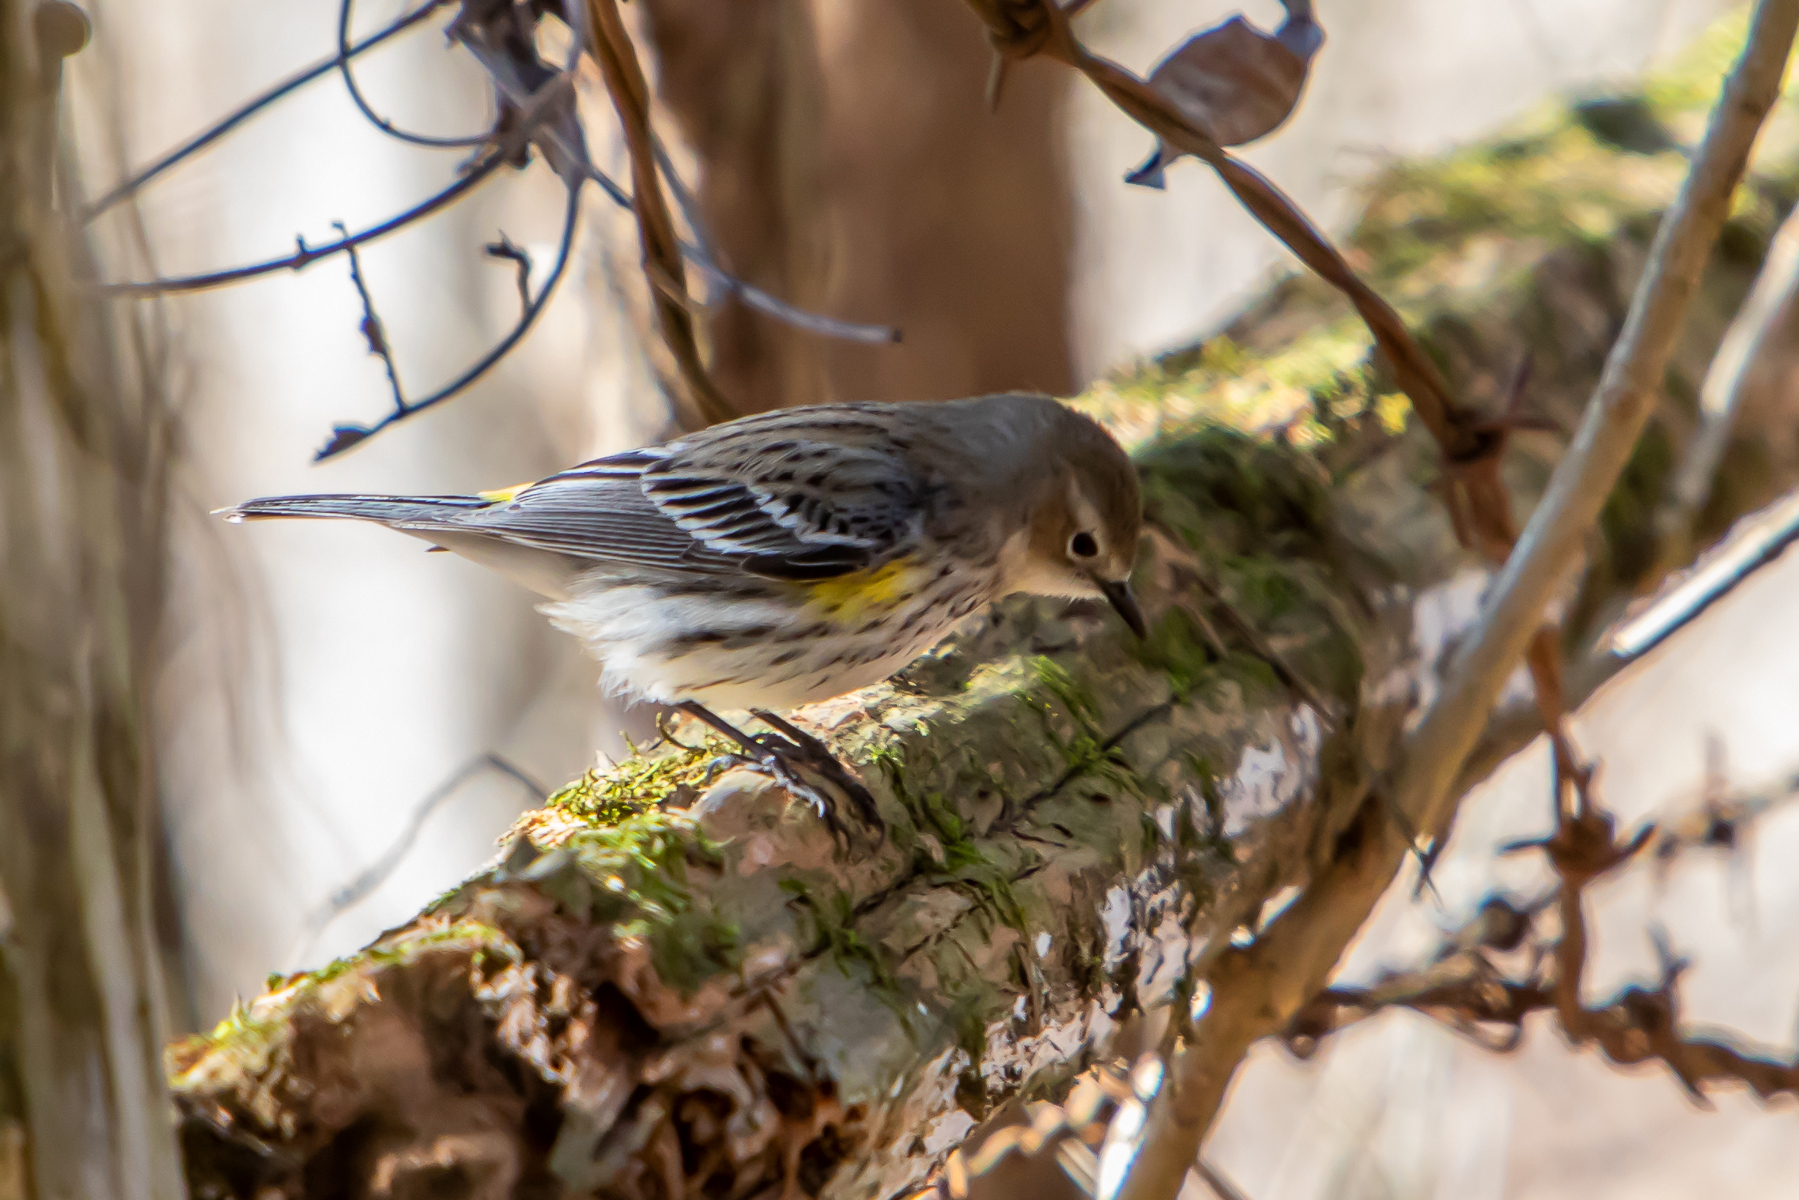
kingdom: Animalia
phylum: Chordata
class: Aves
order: Passeriformes
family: Parulidae
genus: Setophaga
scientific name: Setophaga coronata
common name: Myrtle warbler
